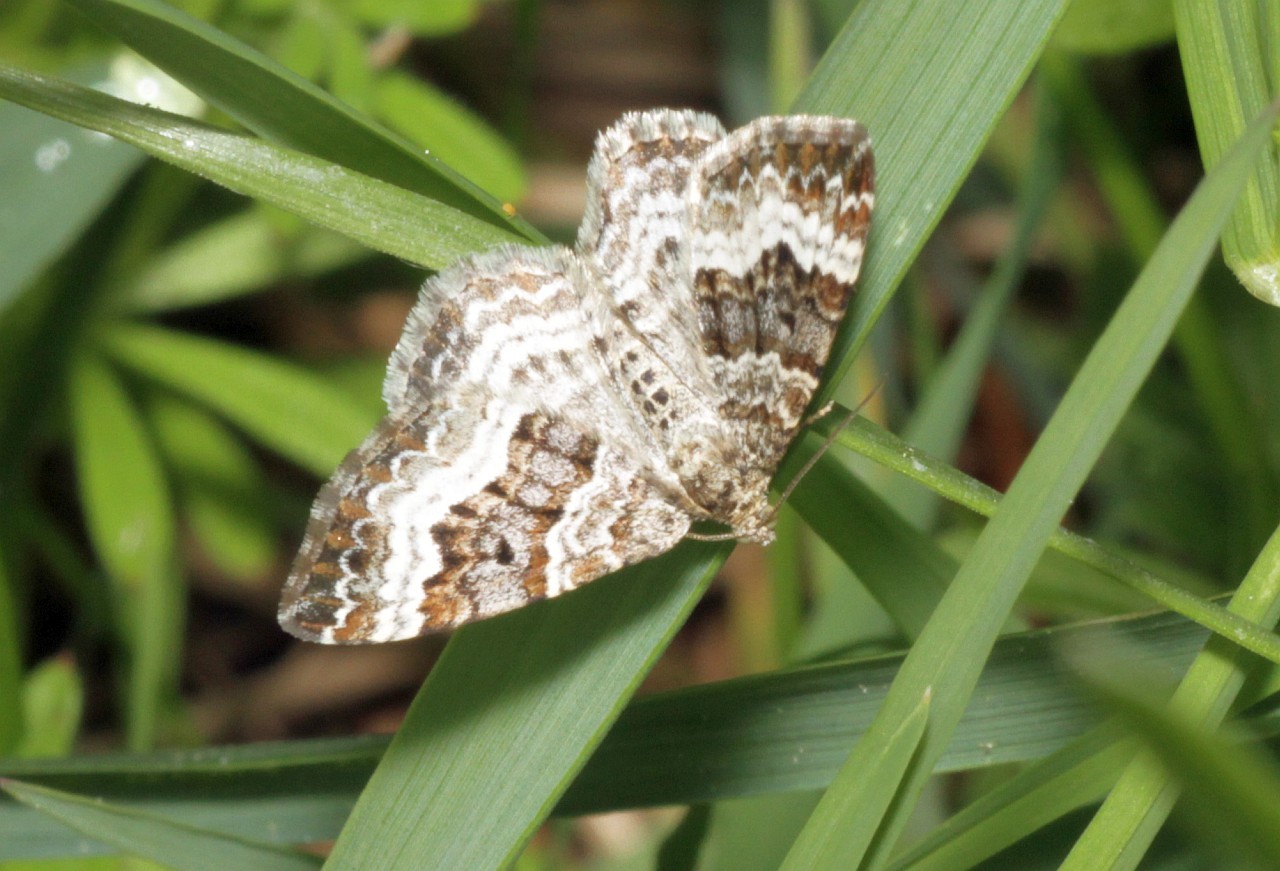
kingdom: Animalia
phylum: Arthropoda
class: Insecta
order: Lepidoptera
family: Geometridae
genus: Epirrhoe
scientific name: Epirrhoe alternata
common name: Common carpet
